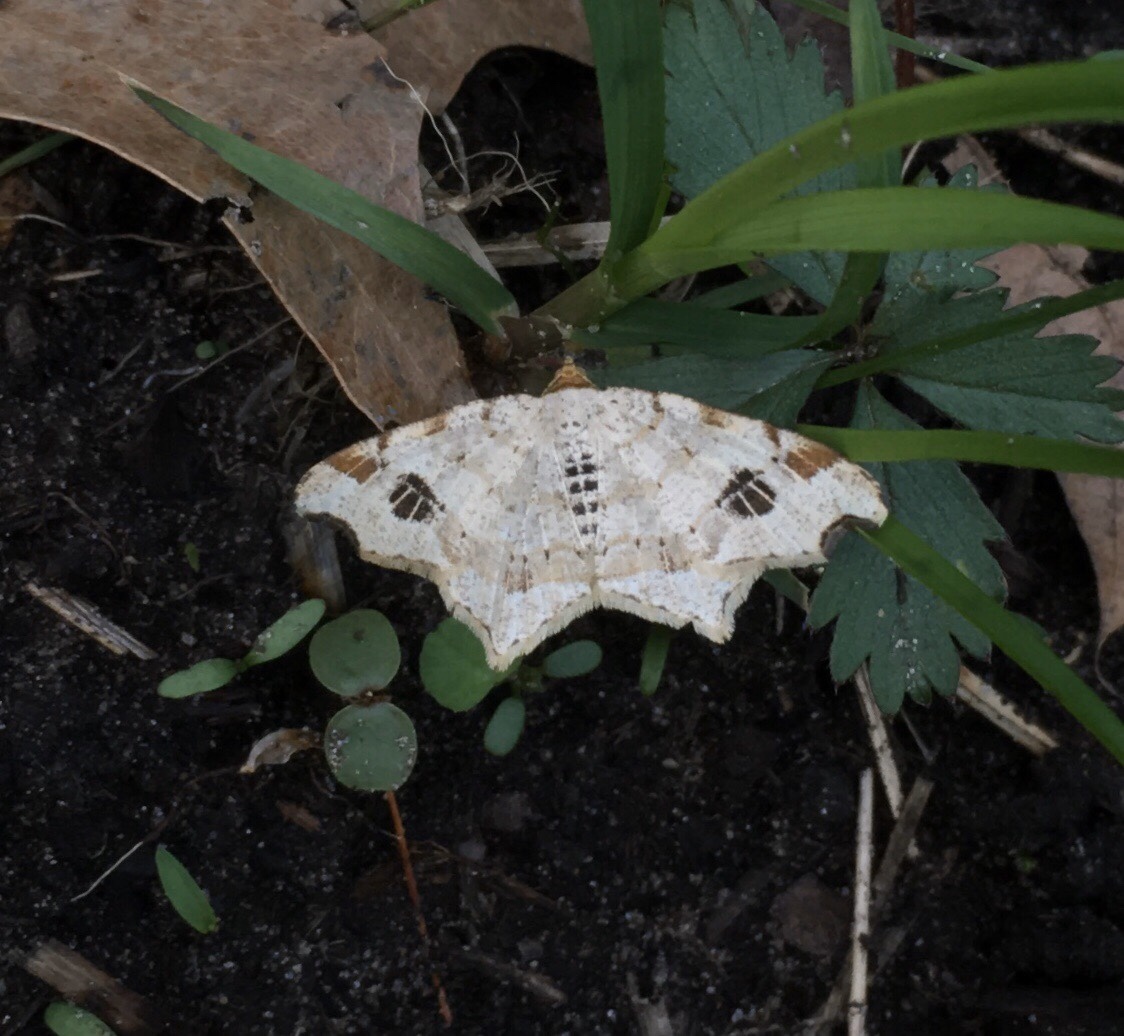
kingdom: Animalia
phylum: Arthropoda
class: Insecta
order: Lepidoptera
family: Geometridae
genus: Macaria
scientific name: Macaria aemulataria
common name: Common angle
